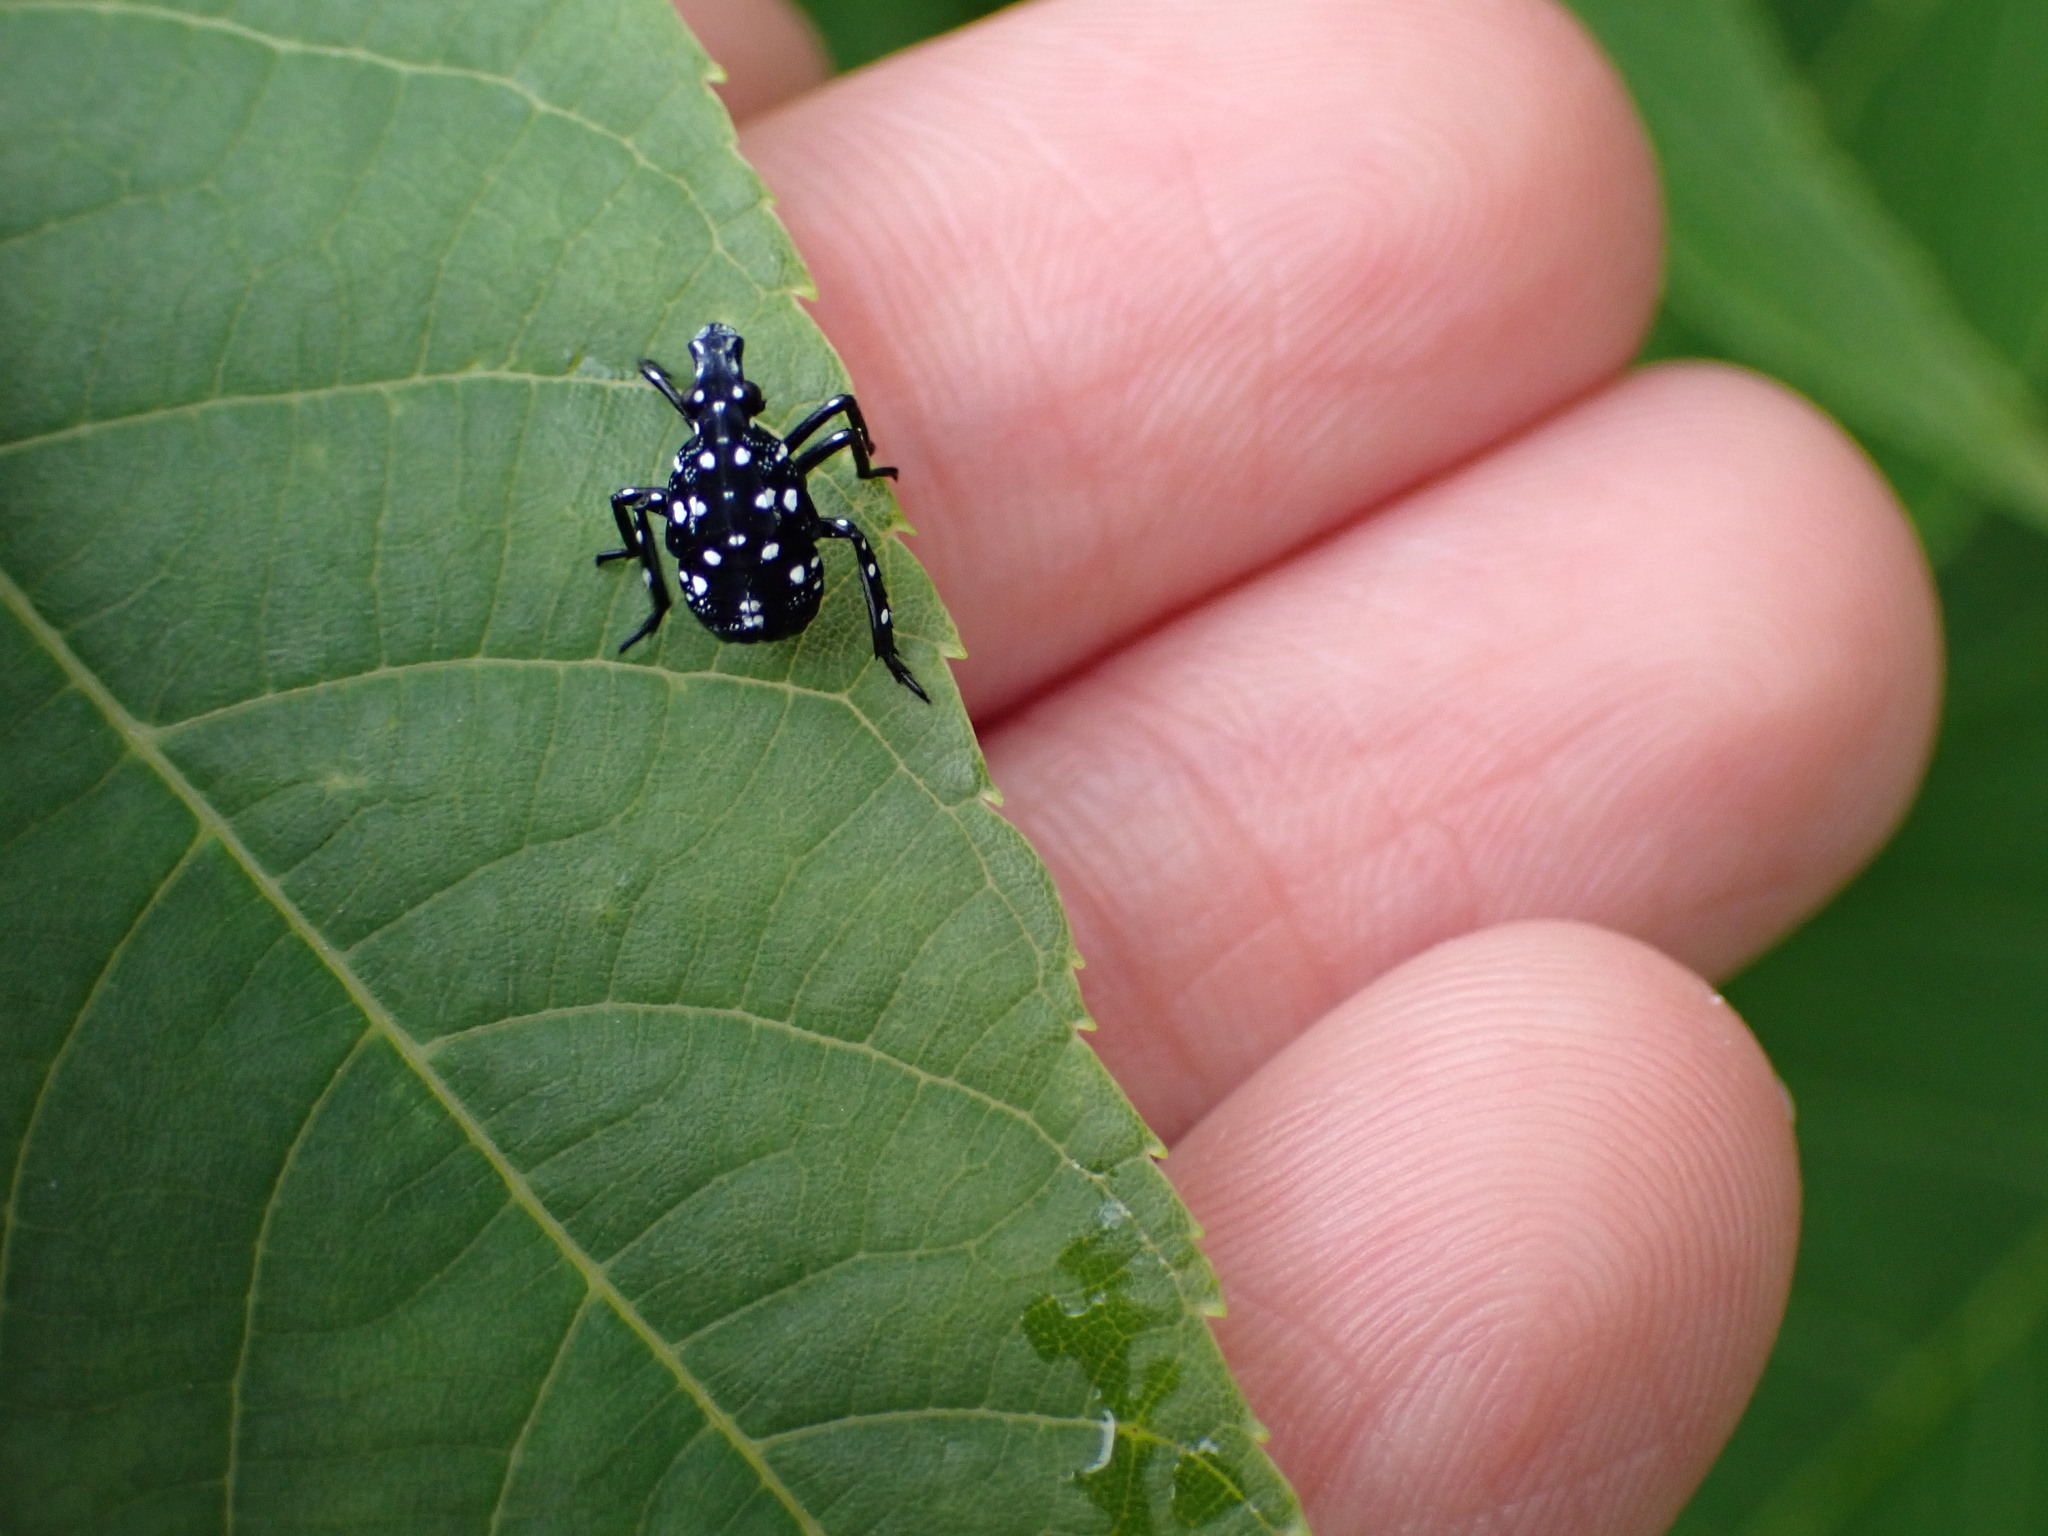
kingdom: Animalia
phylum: Arthropoda
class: Insecta
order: Hemiptera
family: Fulgoridae
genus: Lycorma
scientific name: Lycorma delicatula
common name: Spotted lanternfly
